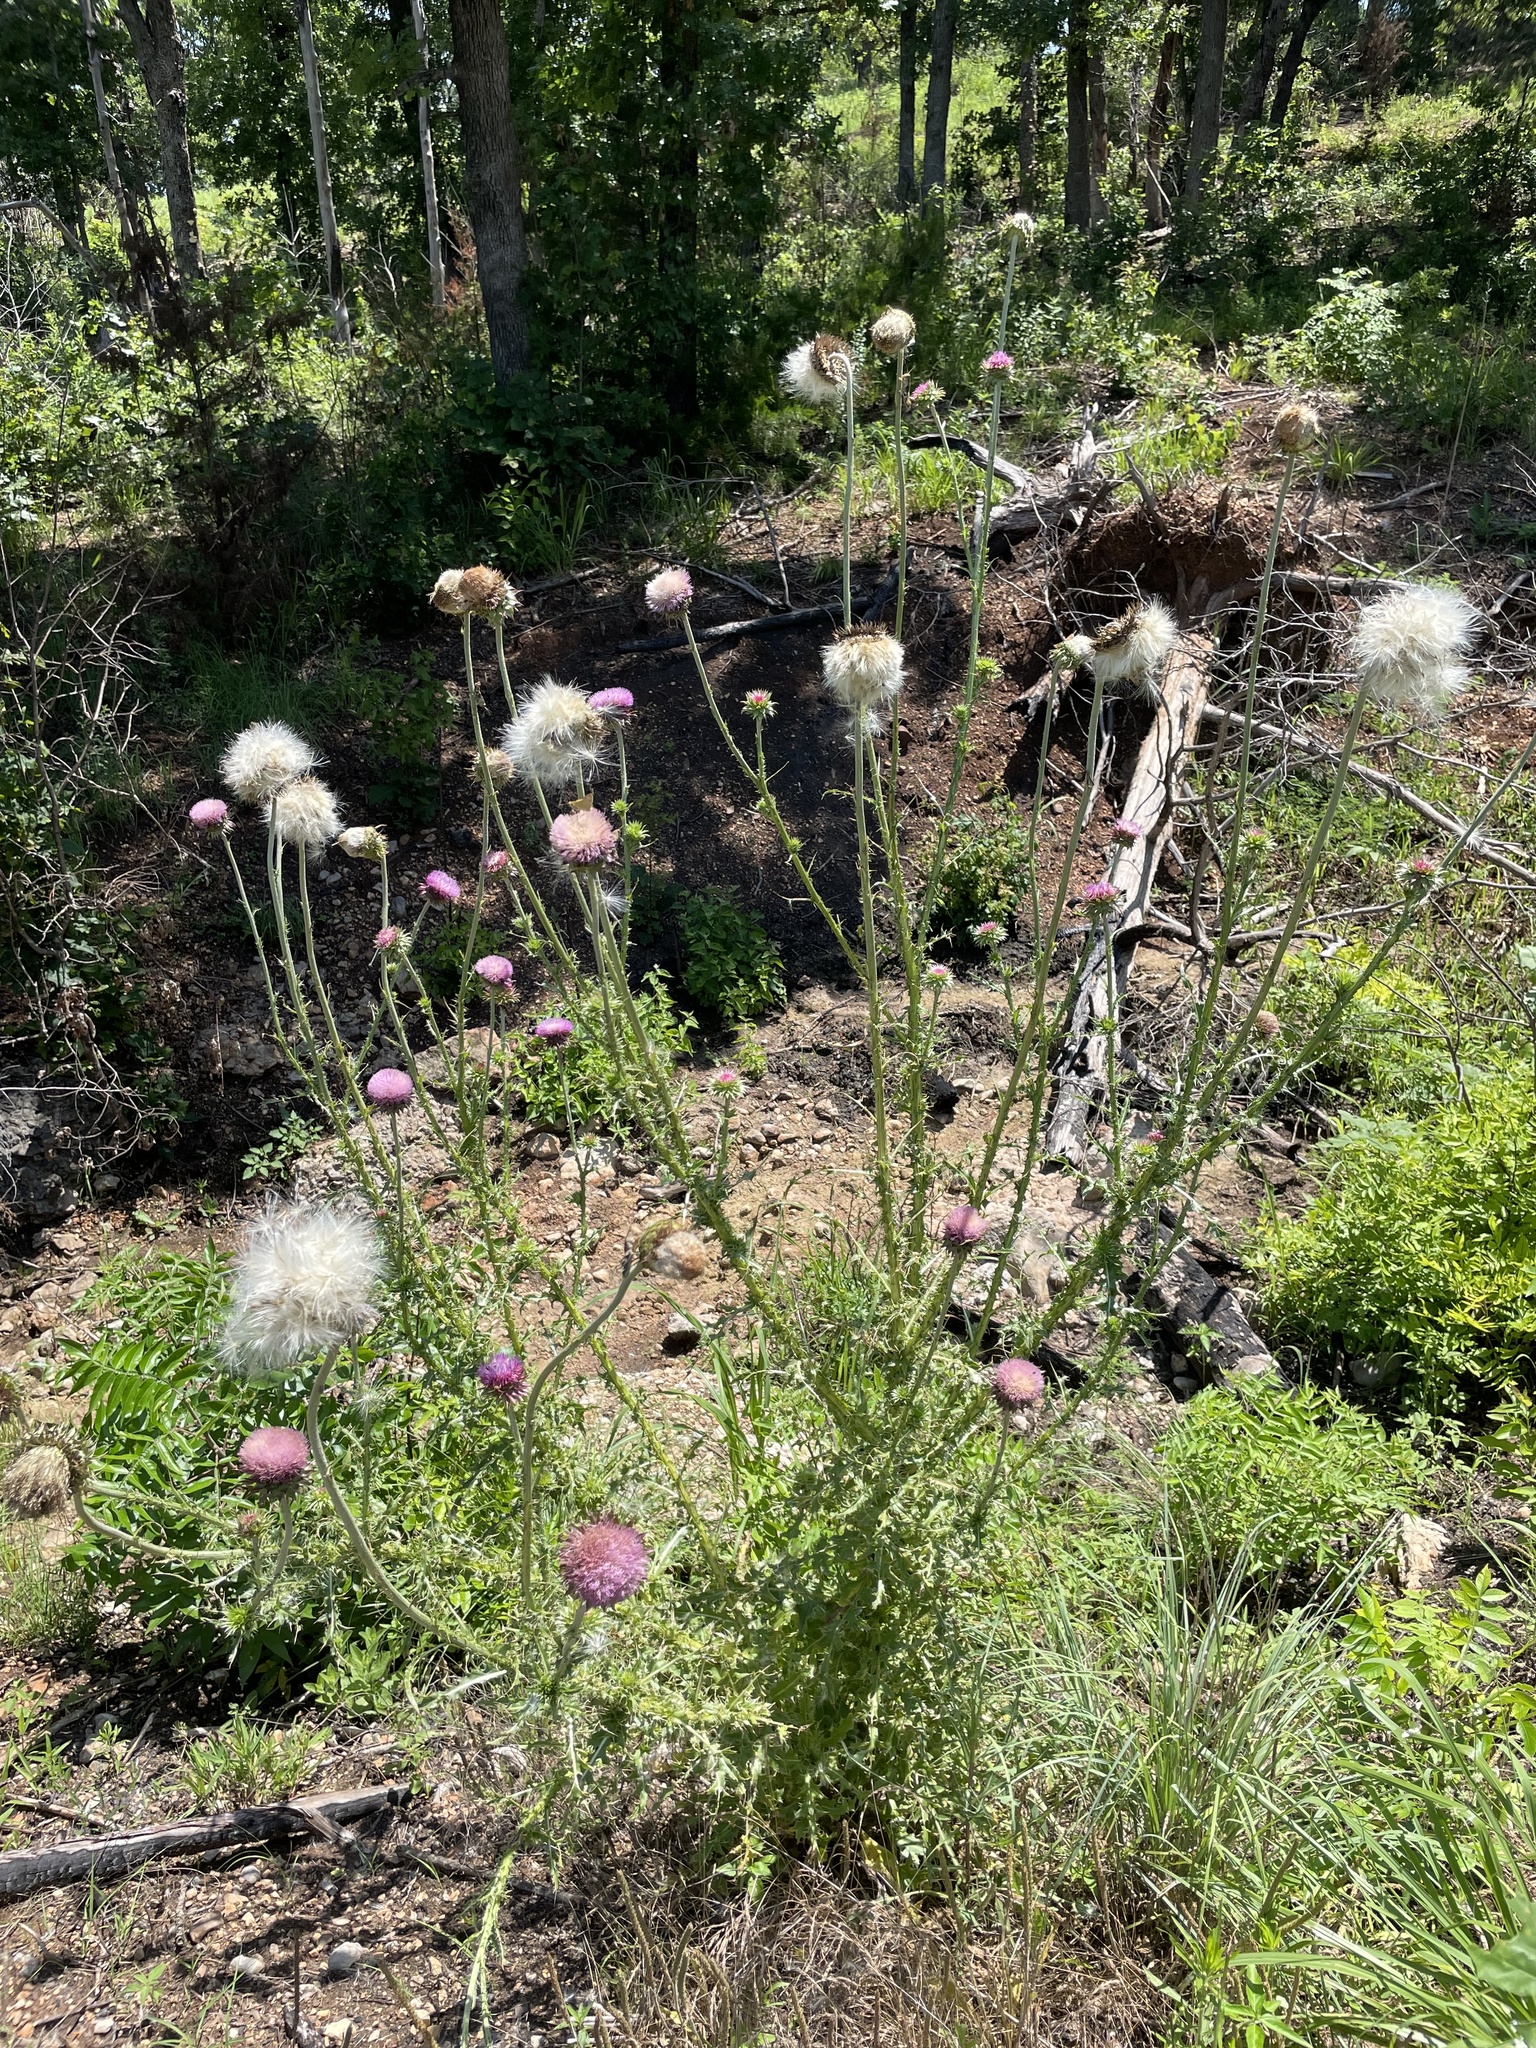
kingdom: Plantae
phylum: Tracheophyta
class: Magnoliopsida
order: Asterales
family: Asteraceae
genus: Carduus
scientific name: Carduus nutans
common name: Musk thistle
